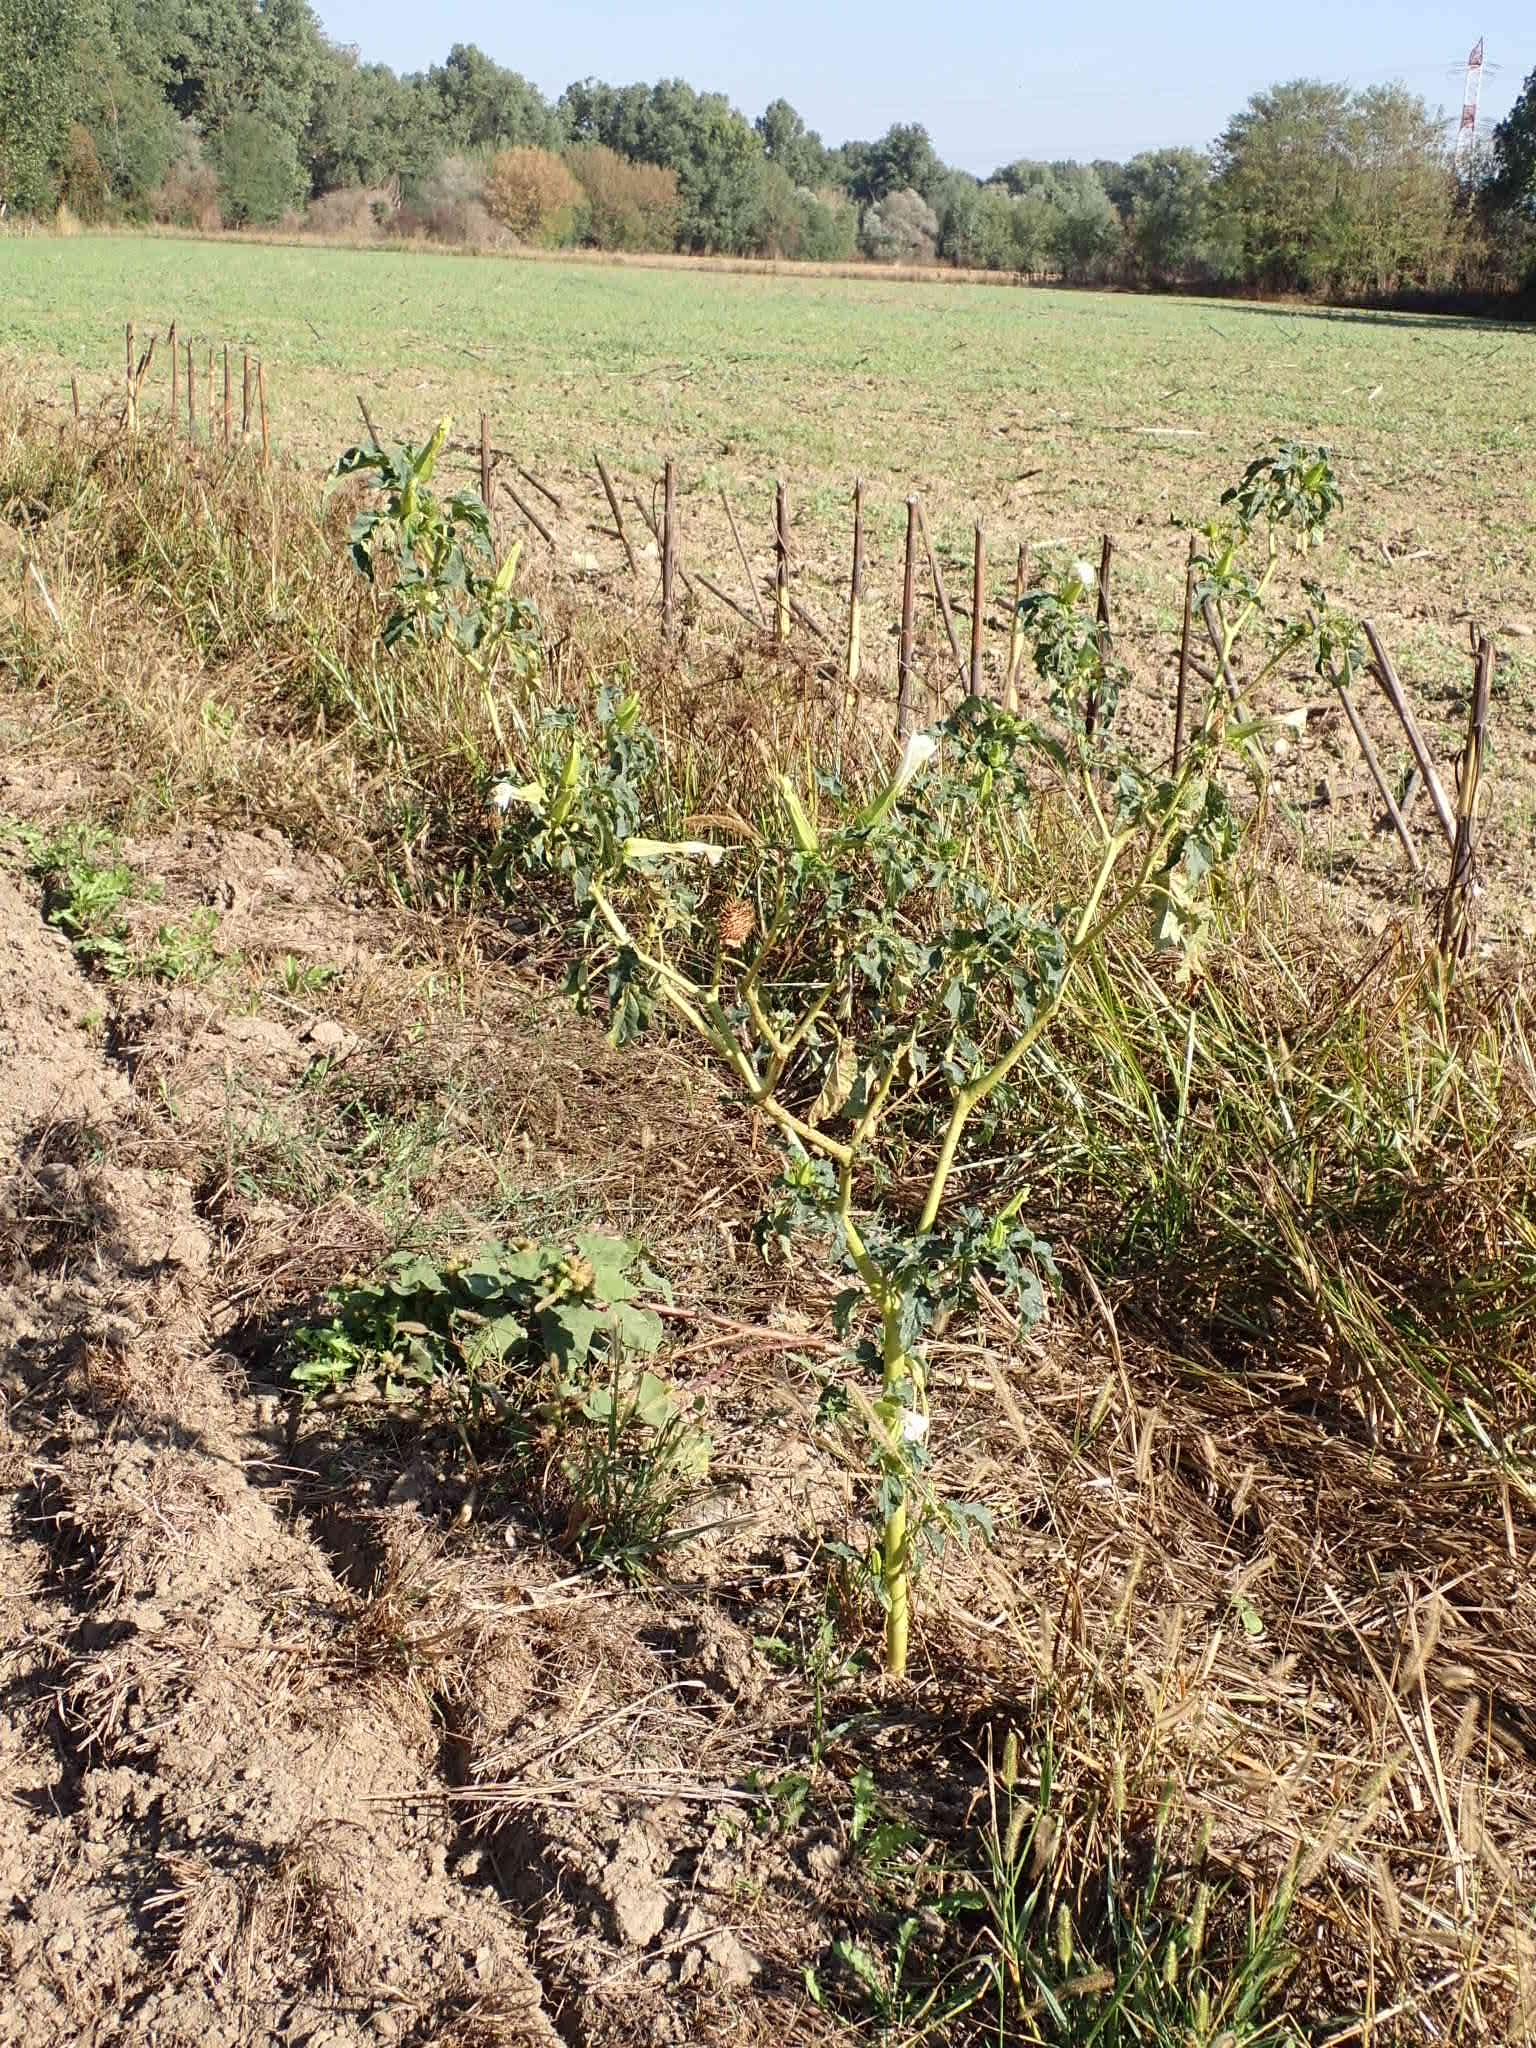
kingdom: Plantae
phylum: Tracheophyta
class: Magnoliopsida
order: Solanales
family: Solanaceae
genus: Datura
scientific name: Datura stramonium
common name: Thorn-apple
